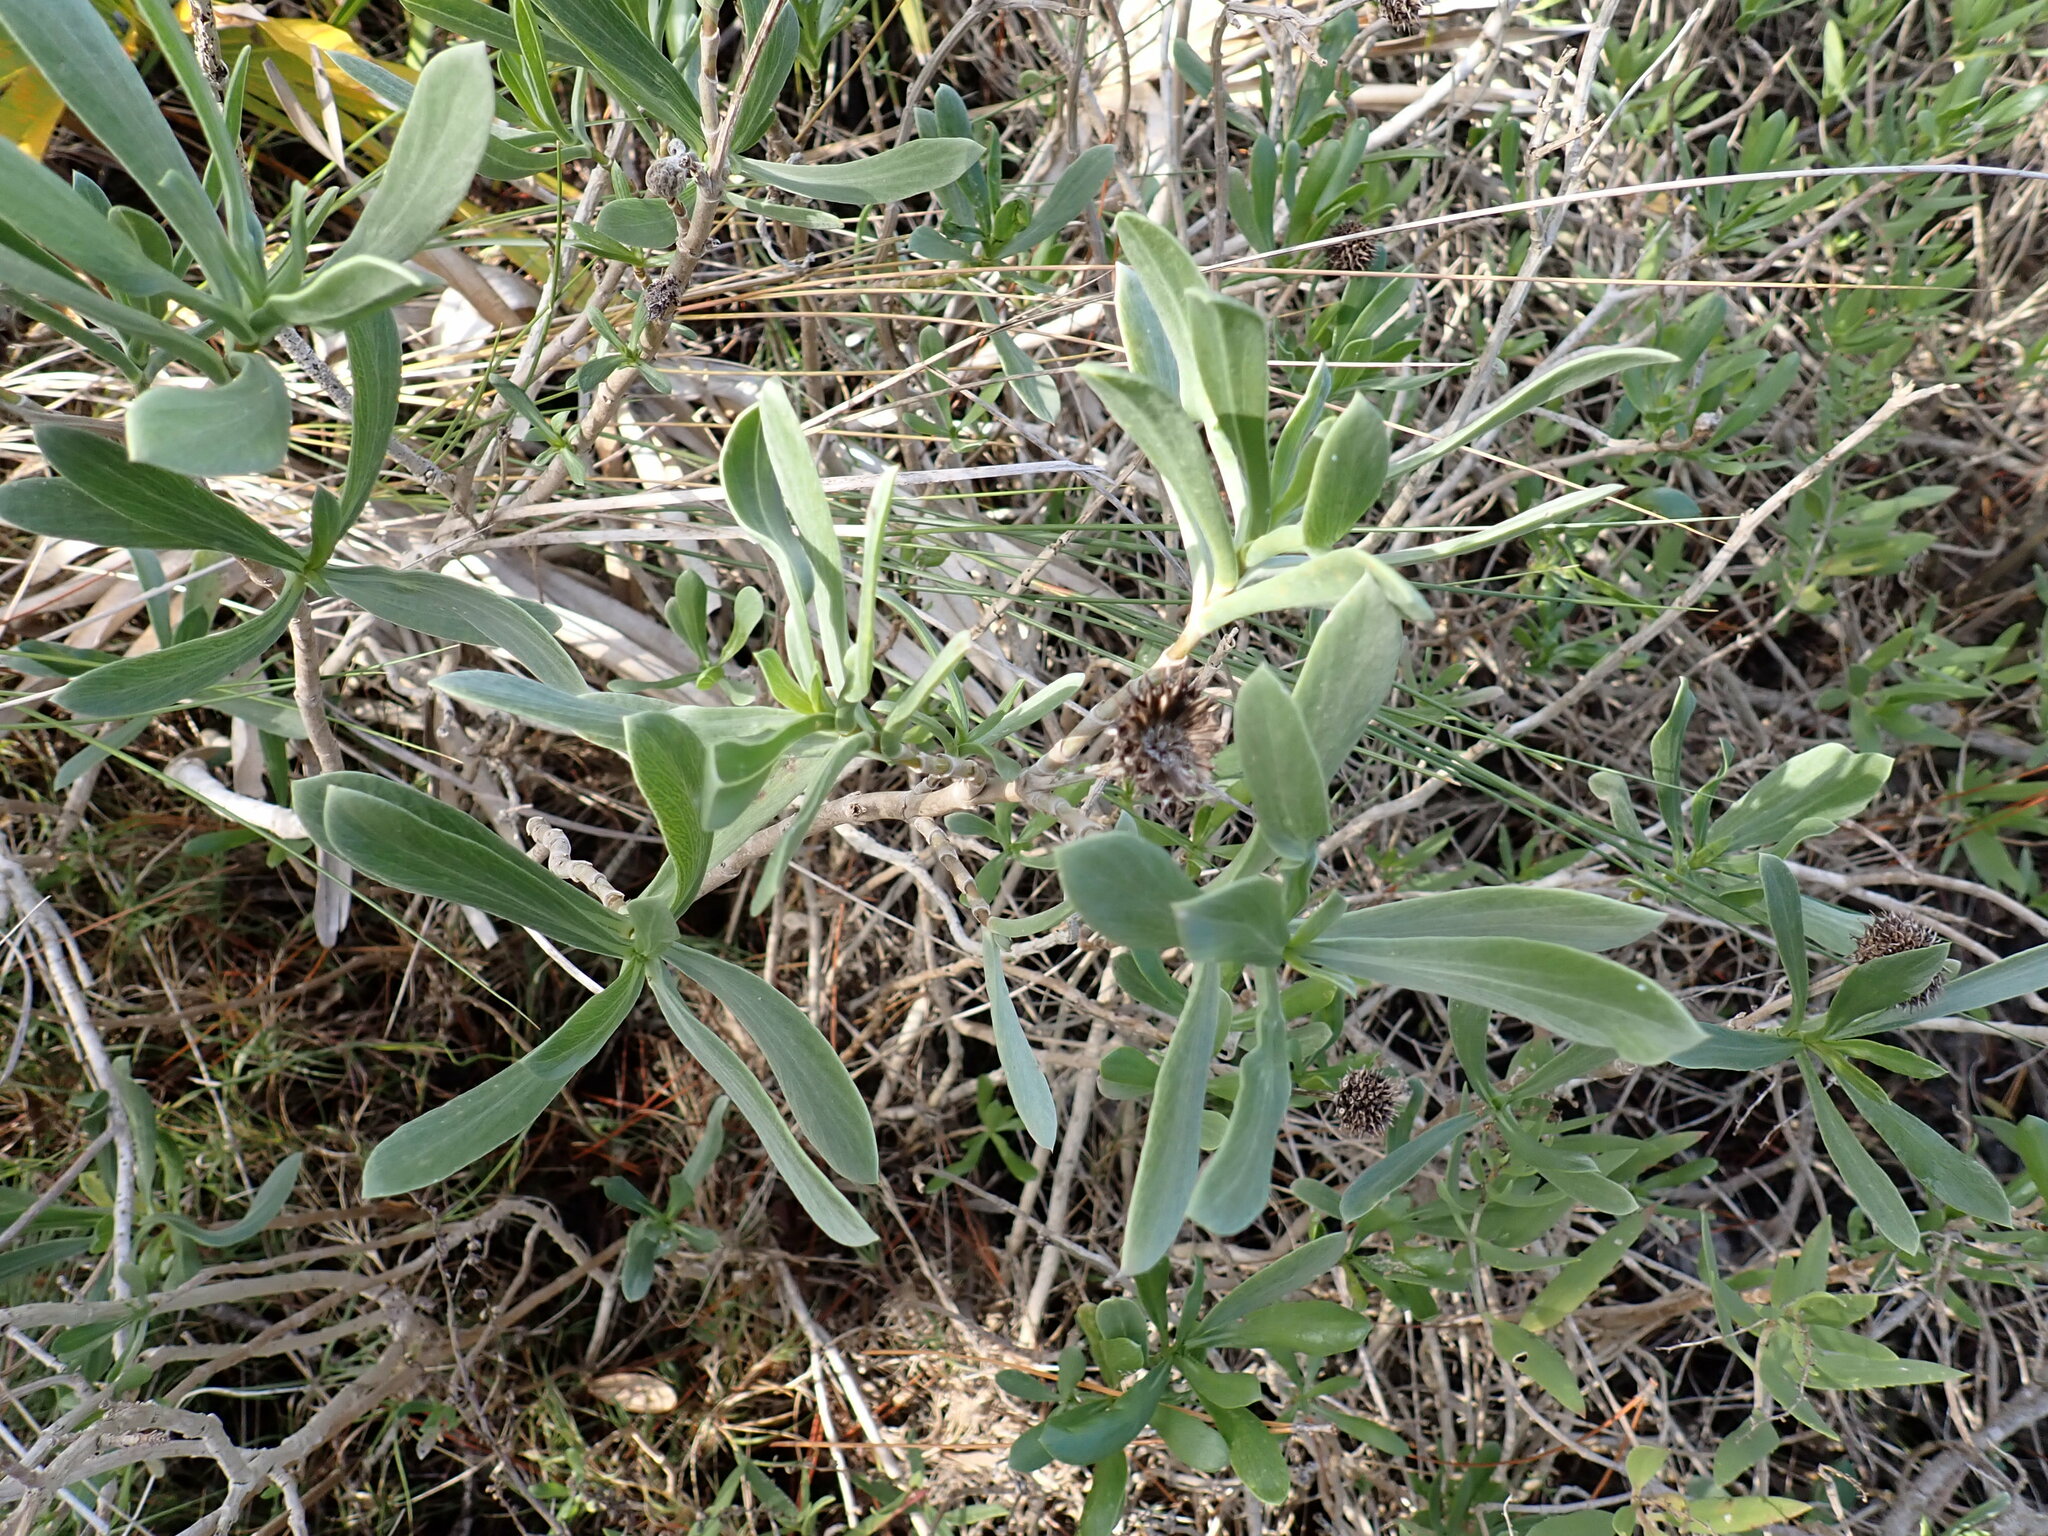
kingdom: Plantae
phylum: Tracheophyta
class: Magnoliopsida
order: Asterales
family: Asteraceae
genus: Borrichia
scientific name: Borrichia frutescens
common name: Sea oxeye
